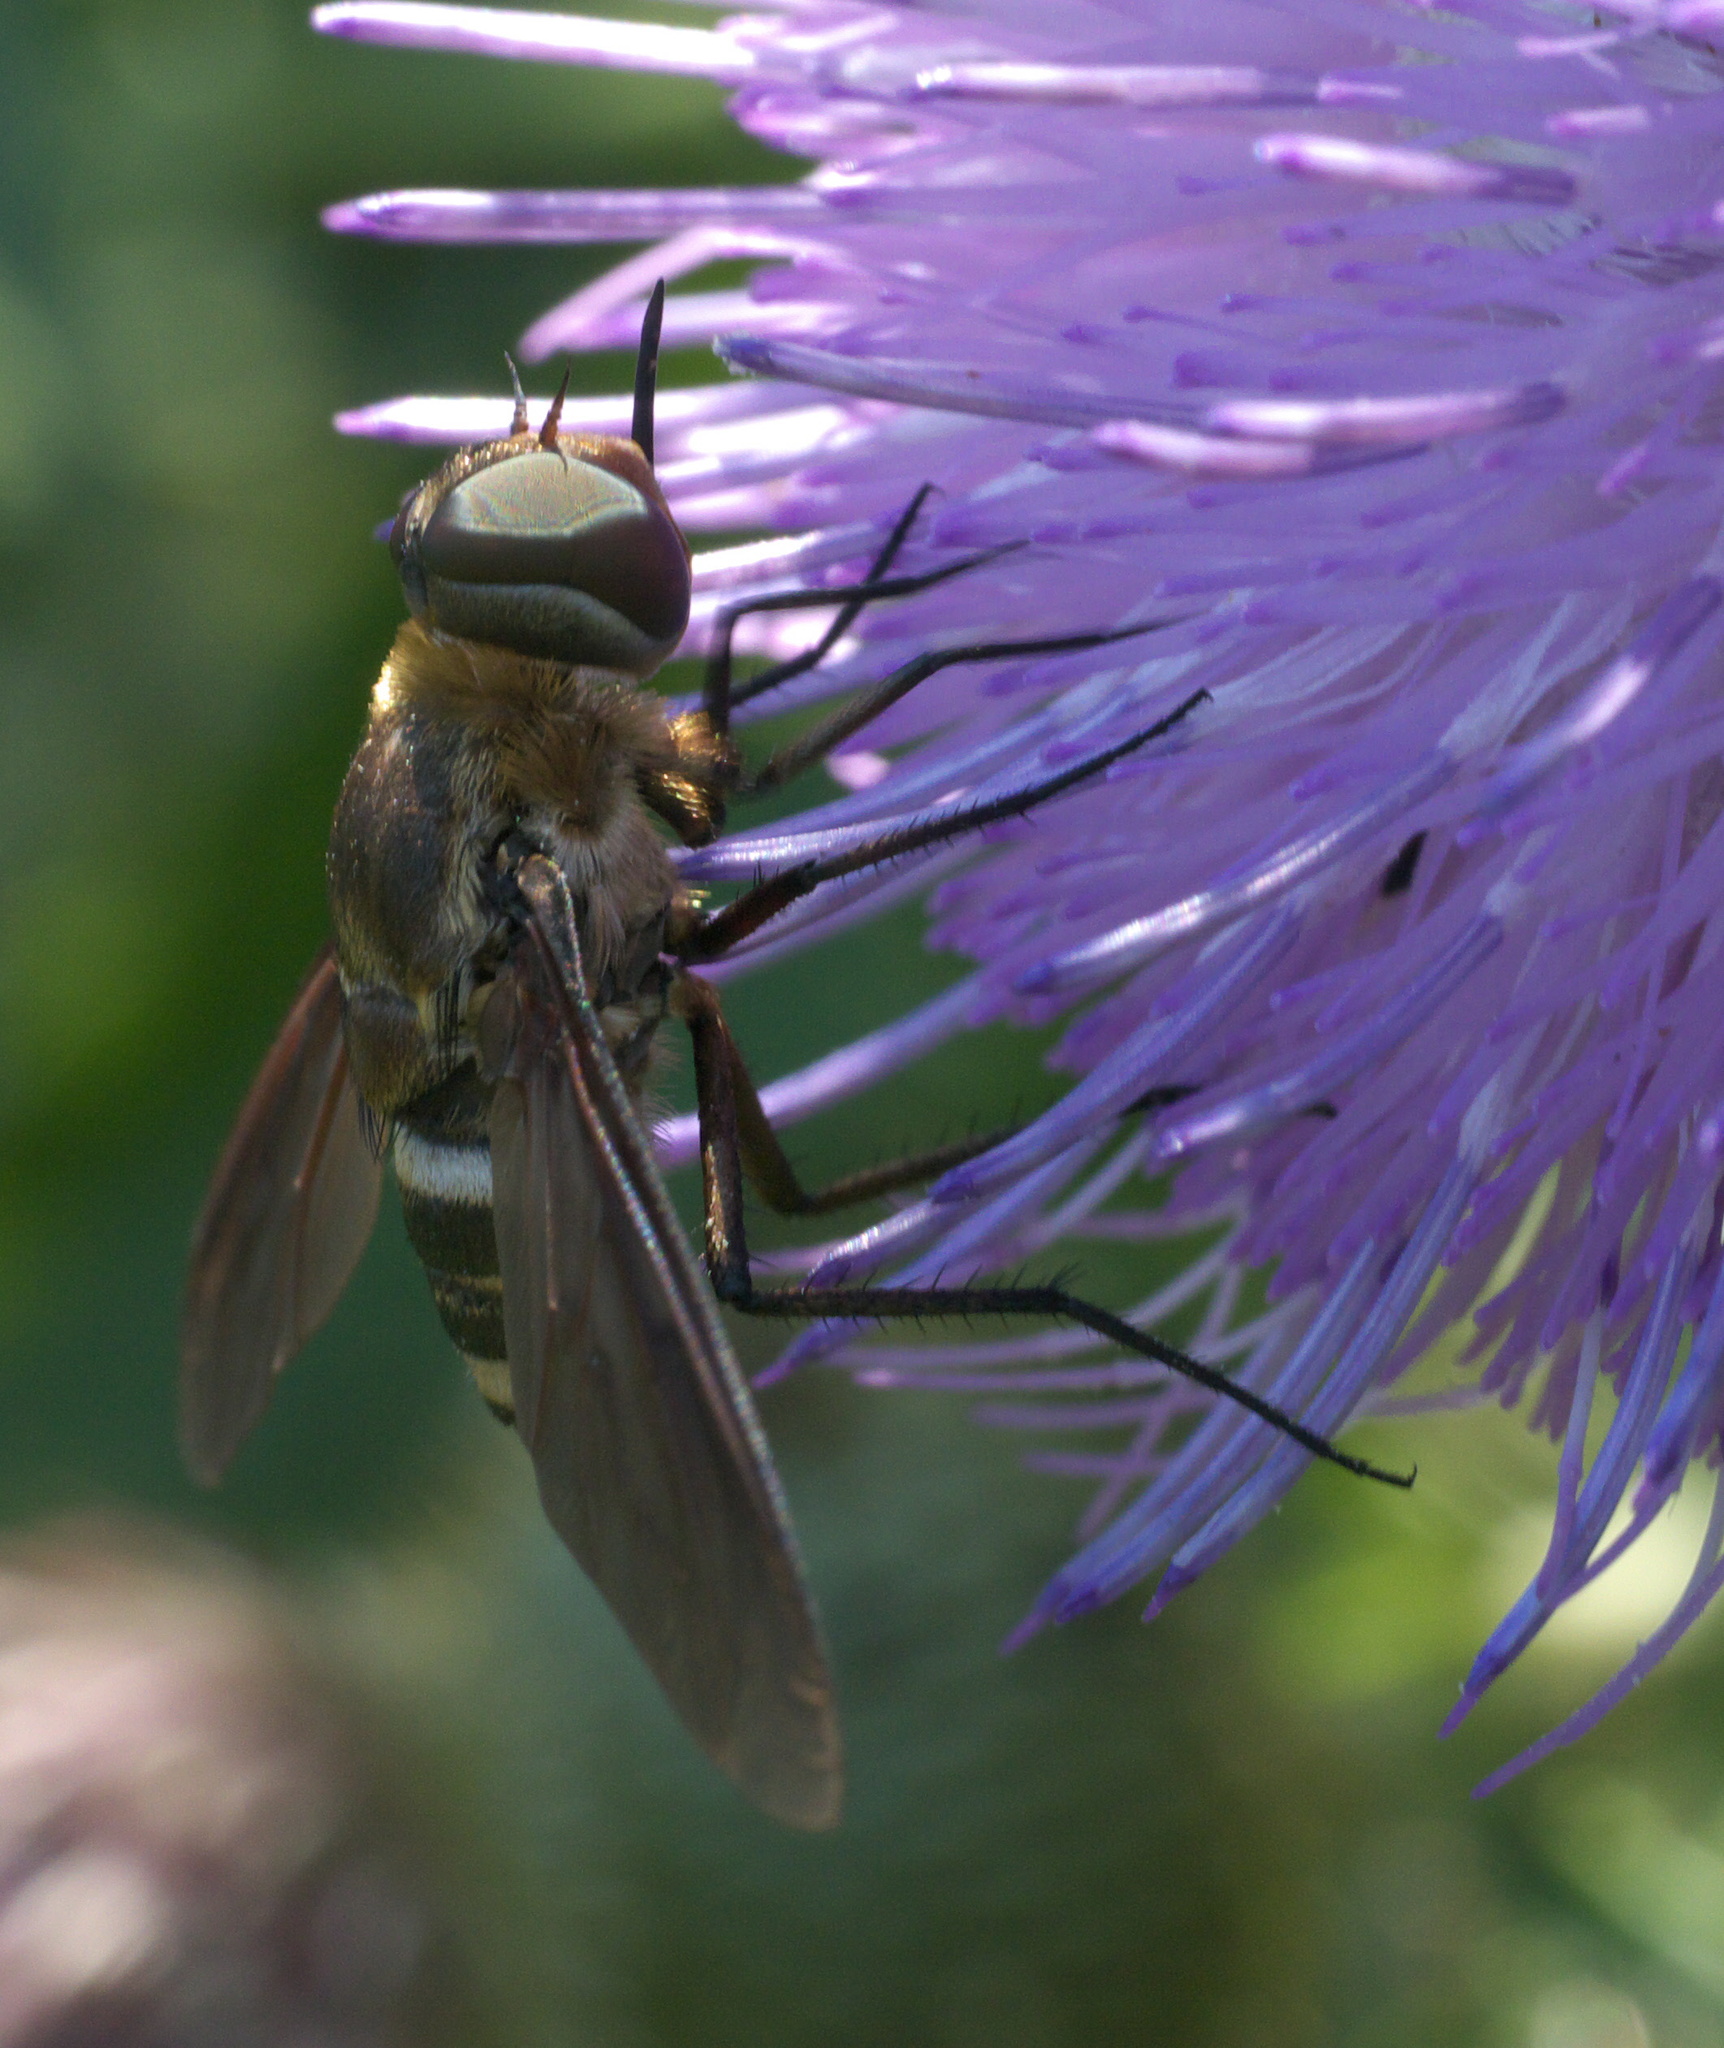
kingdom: Animalia
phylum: Arthropoda
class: Insecta
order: Diptera
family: Bombyliidae
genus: Exoprosopa
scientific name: Exoprosopa fasciata
